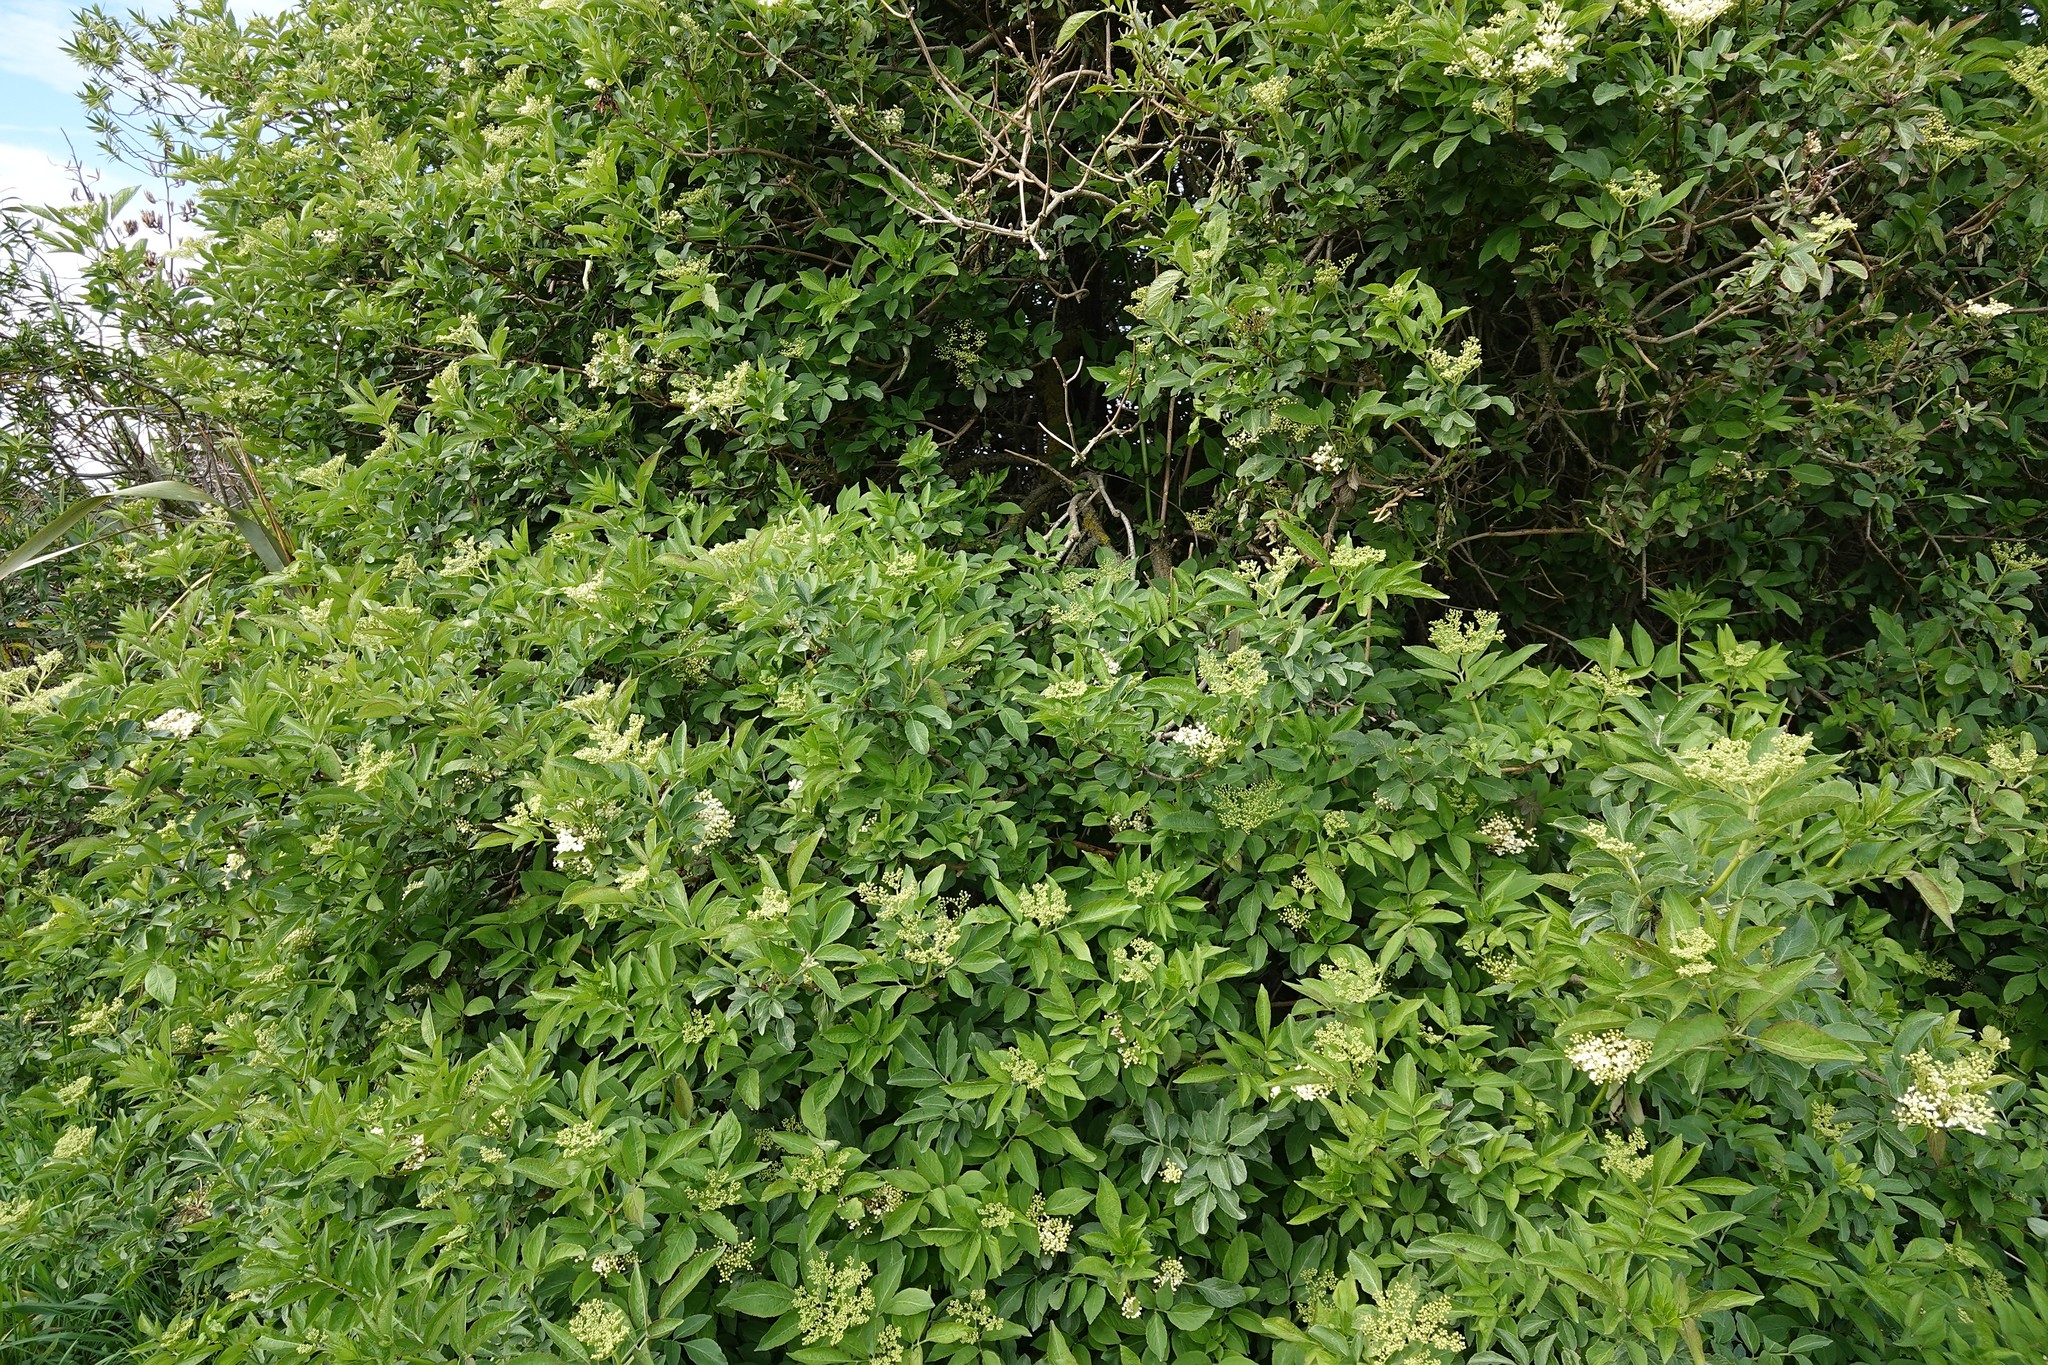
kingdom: Plantae
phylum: Tracheophyta
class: Magnoliopsida
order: Dipsacales
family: Viburnaceae
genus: Sambucus
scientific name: Sambucus nigra
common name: Elder
